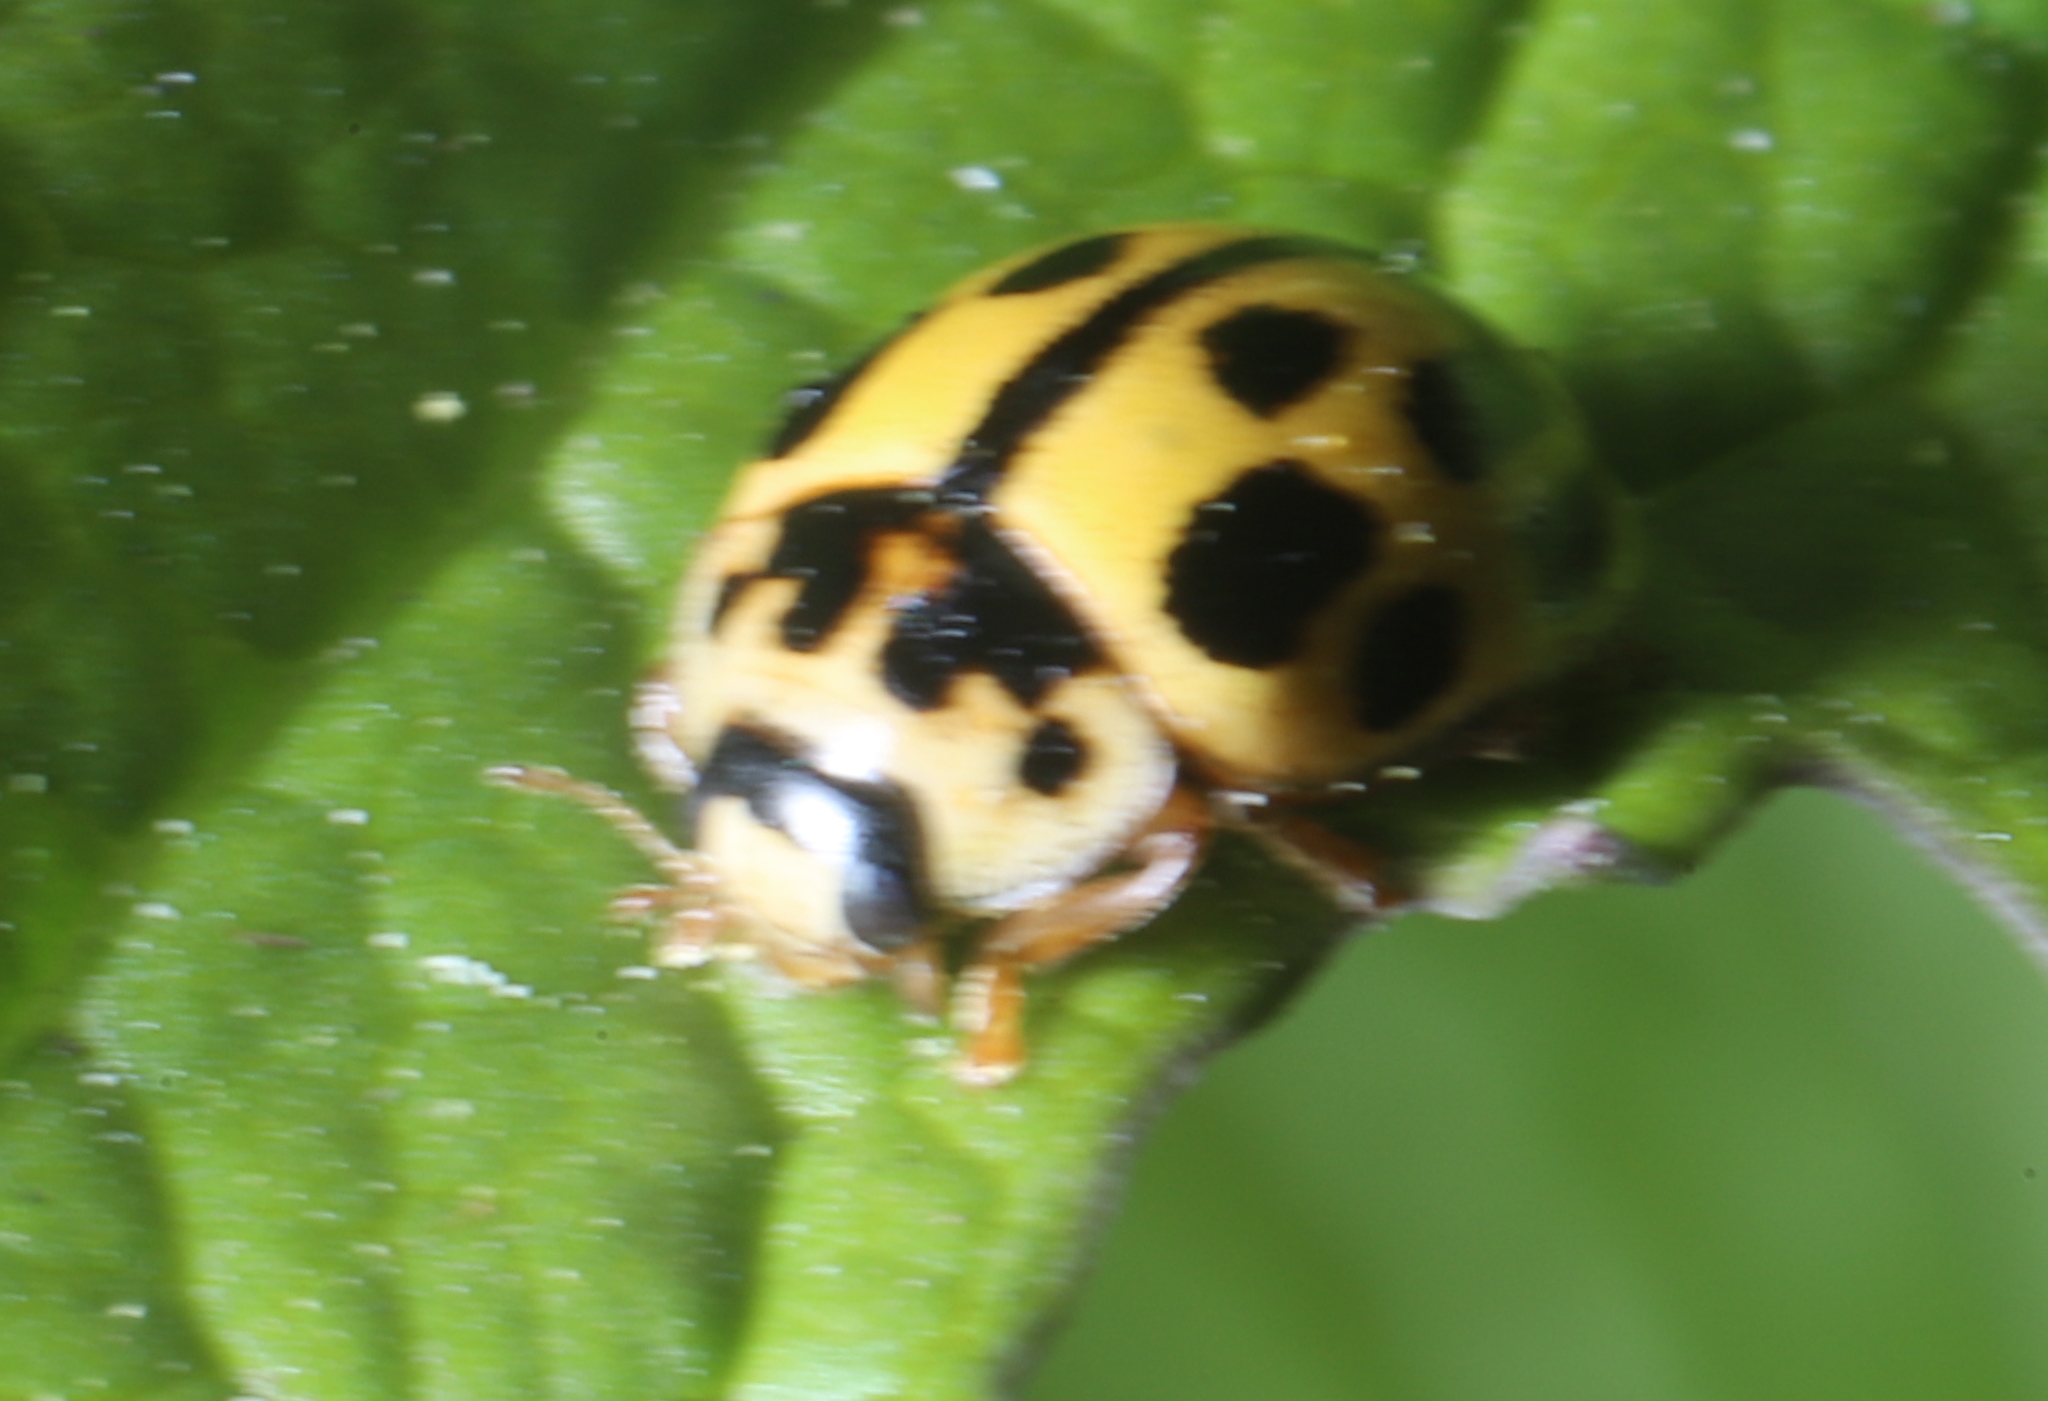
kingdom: Animalia
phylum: Arthropoda
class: Insecta
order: Coleoptera
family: Coccinellidae
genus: Propylaea
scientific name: Propylaea quatuordecimpunctata
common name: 14-spotted ladybird beetle
